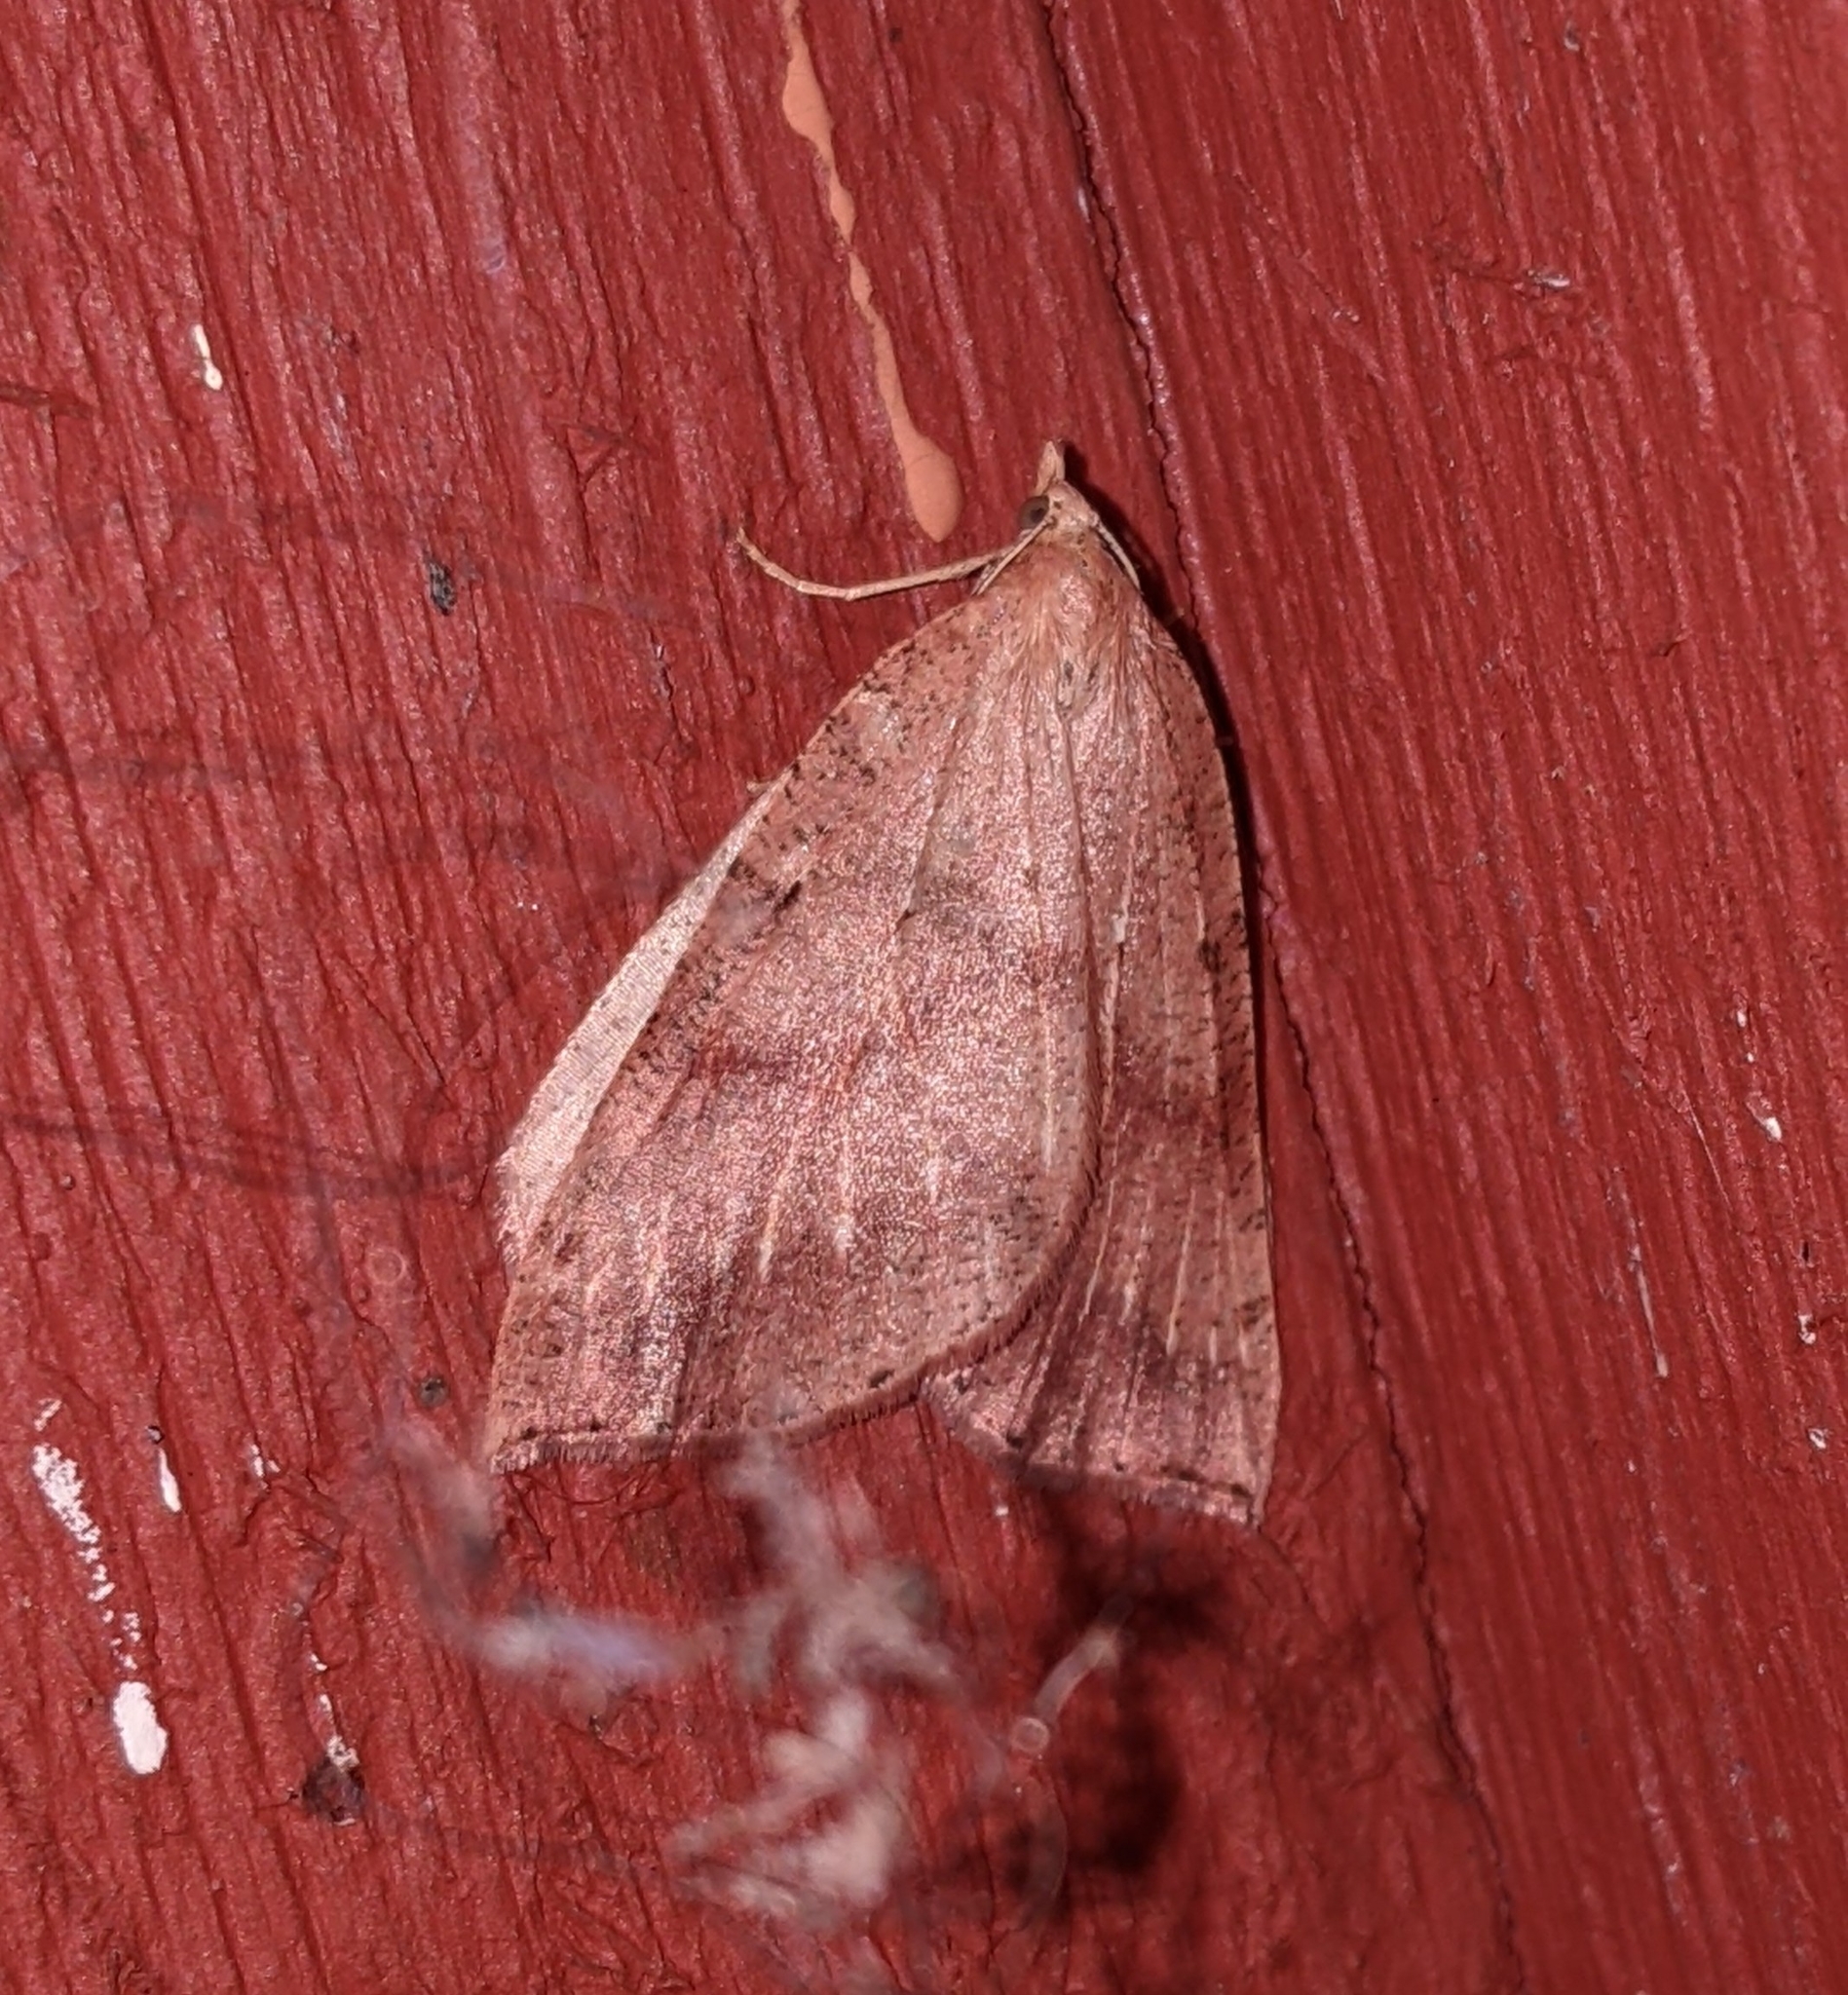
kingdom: Animalia
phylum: Arthropoda
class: Insecta
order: Lepidoptera
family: Geometridae
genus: Thallophaga
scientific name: Thallophaga hyperborea
